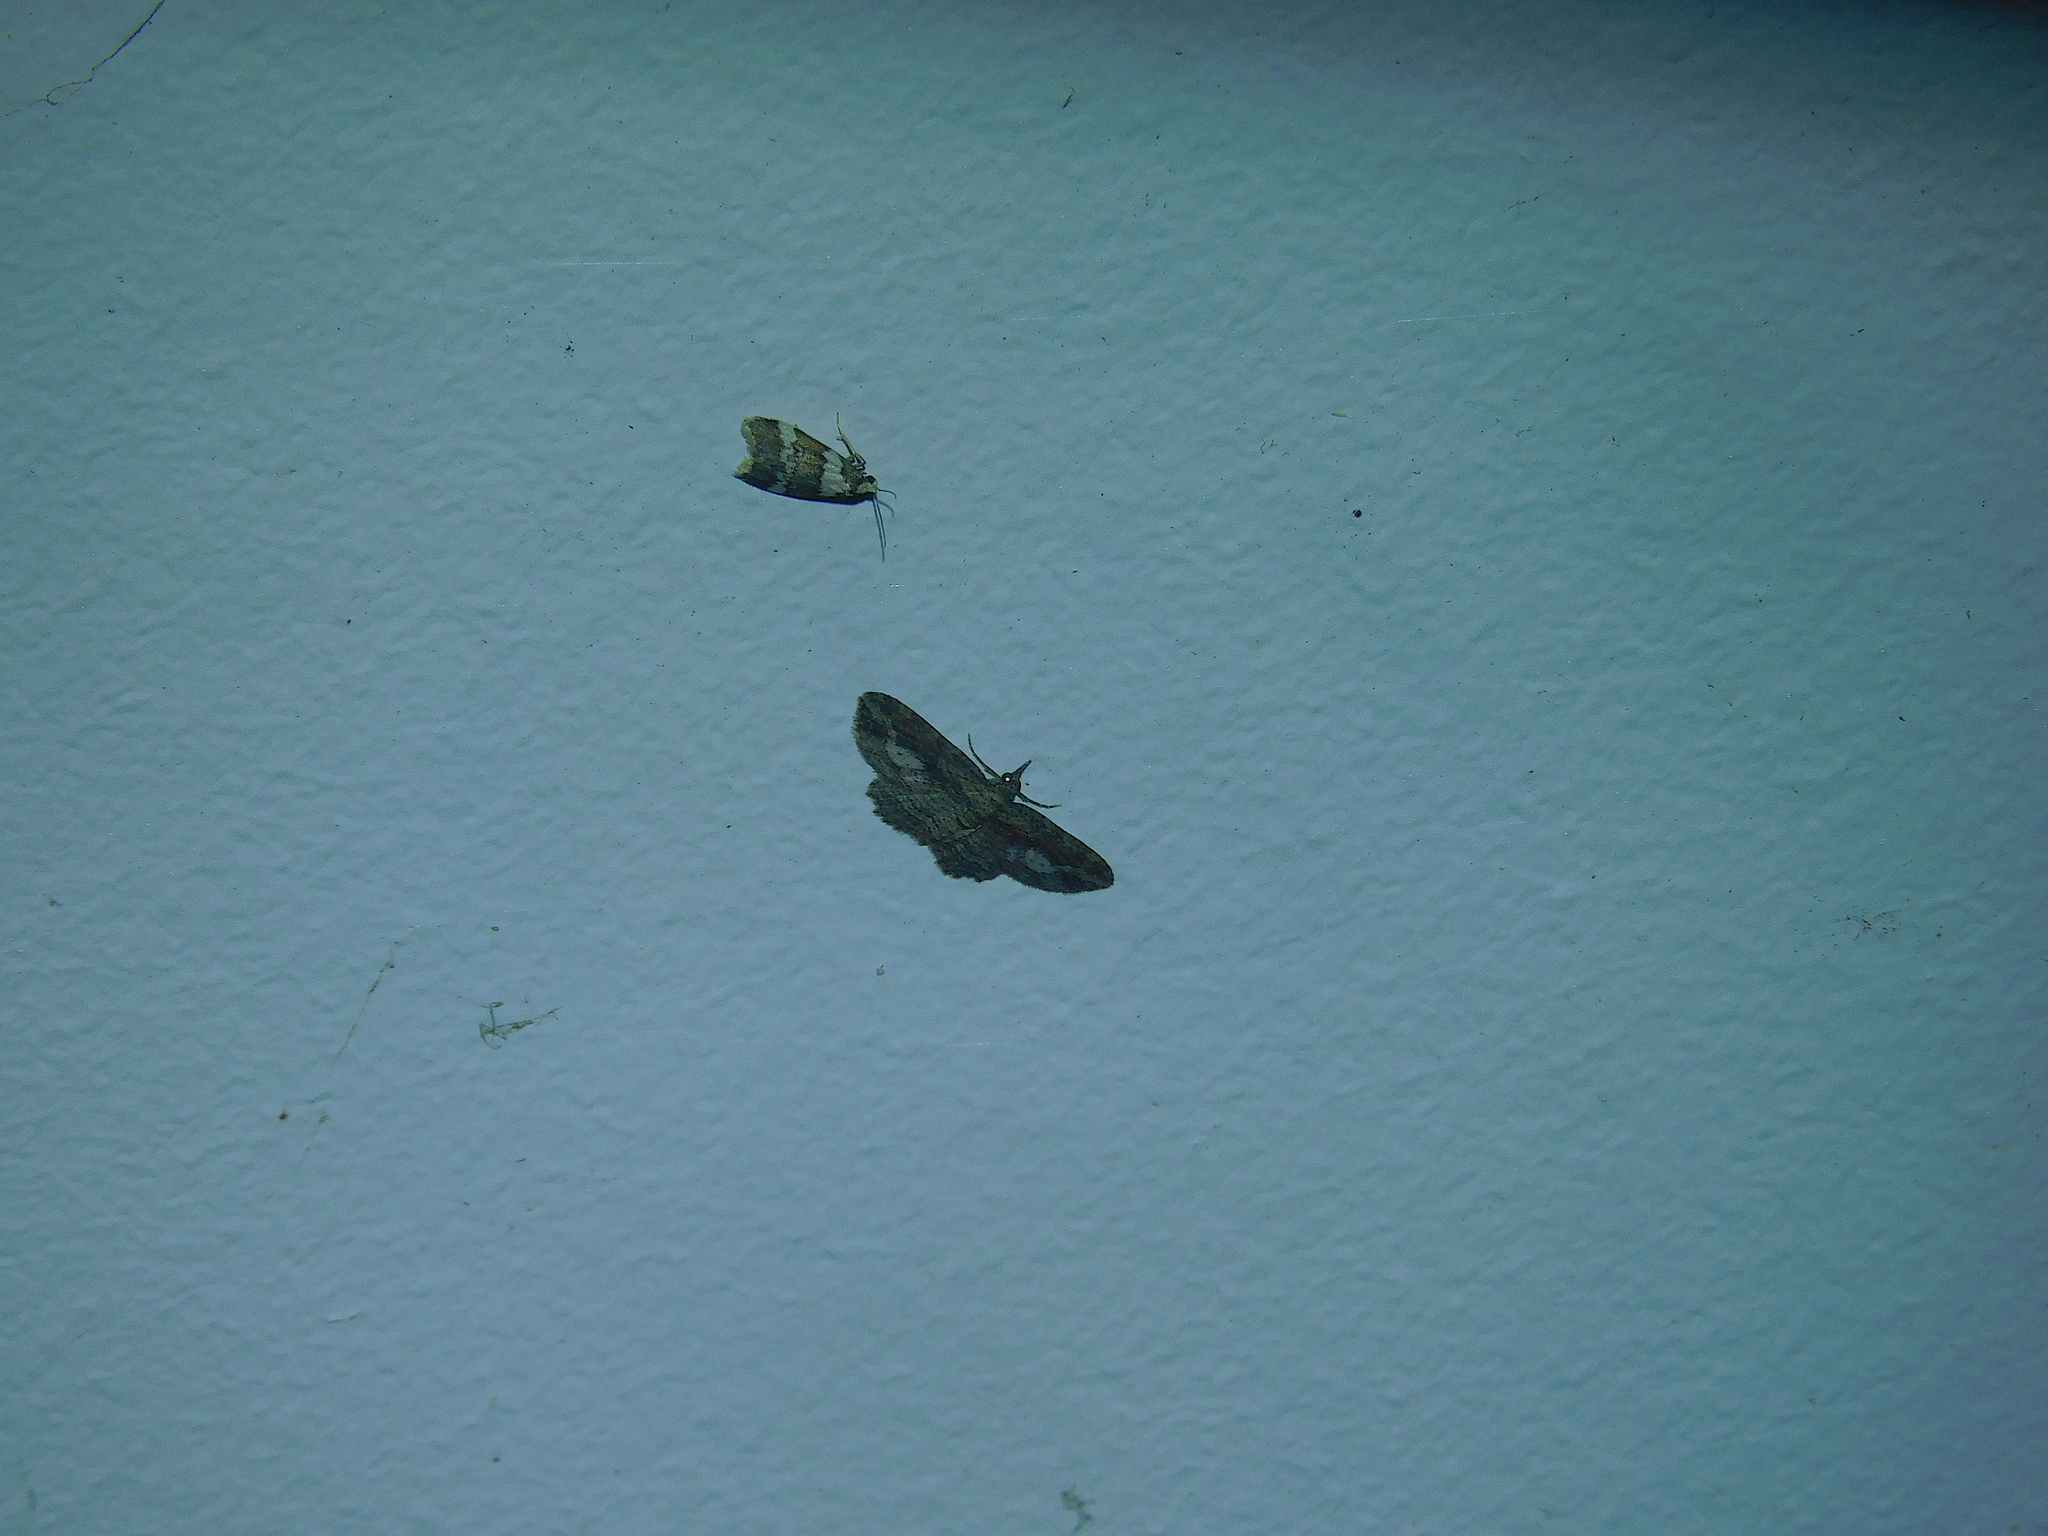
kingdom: Animalia
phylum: Arthropoda
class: Insecta
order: Lepidoptera
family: Geometridae
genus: Chloroclystis
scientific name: Chloroclystis filata
